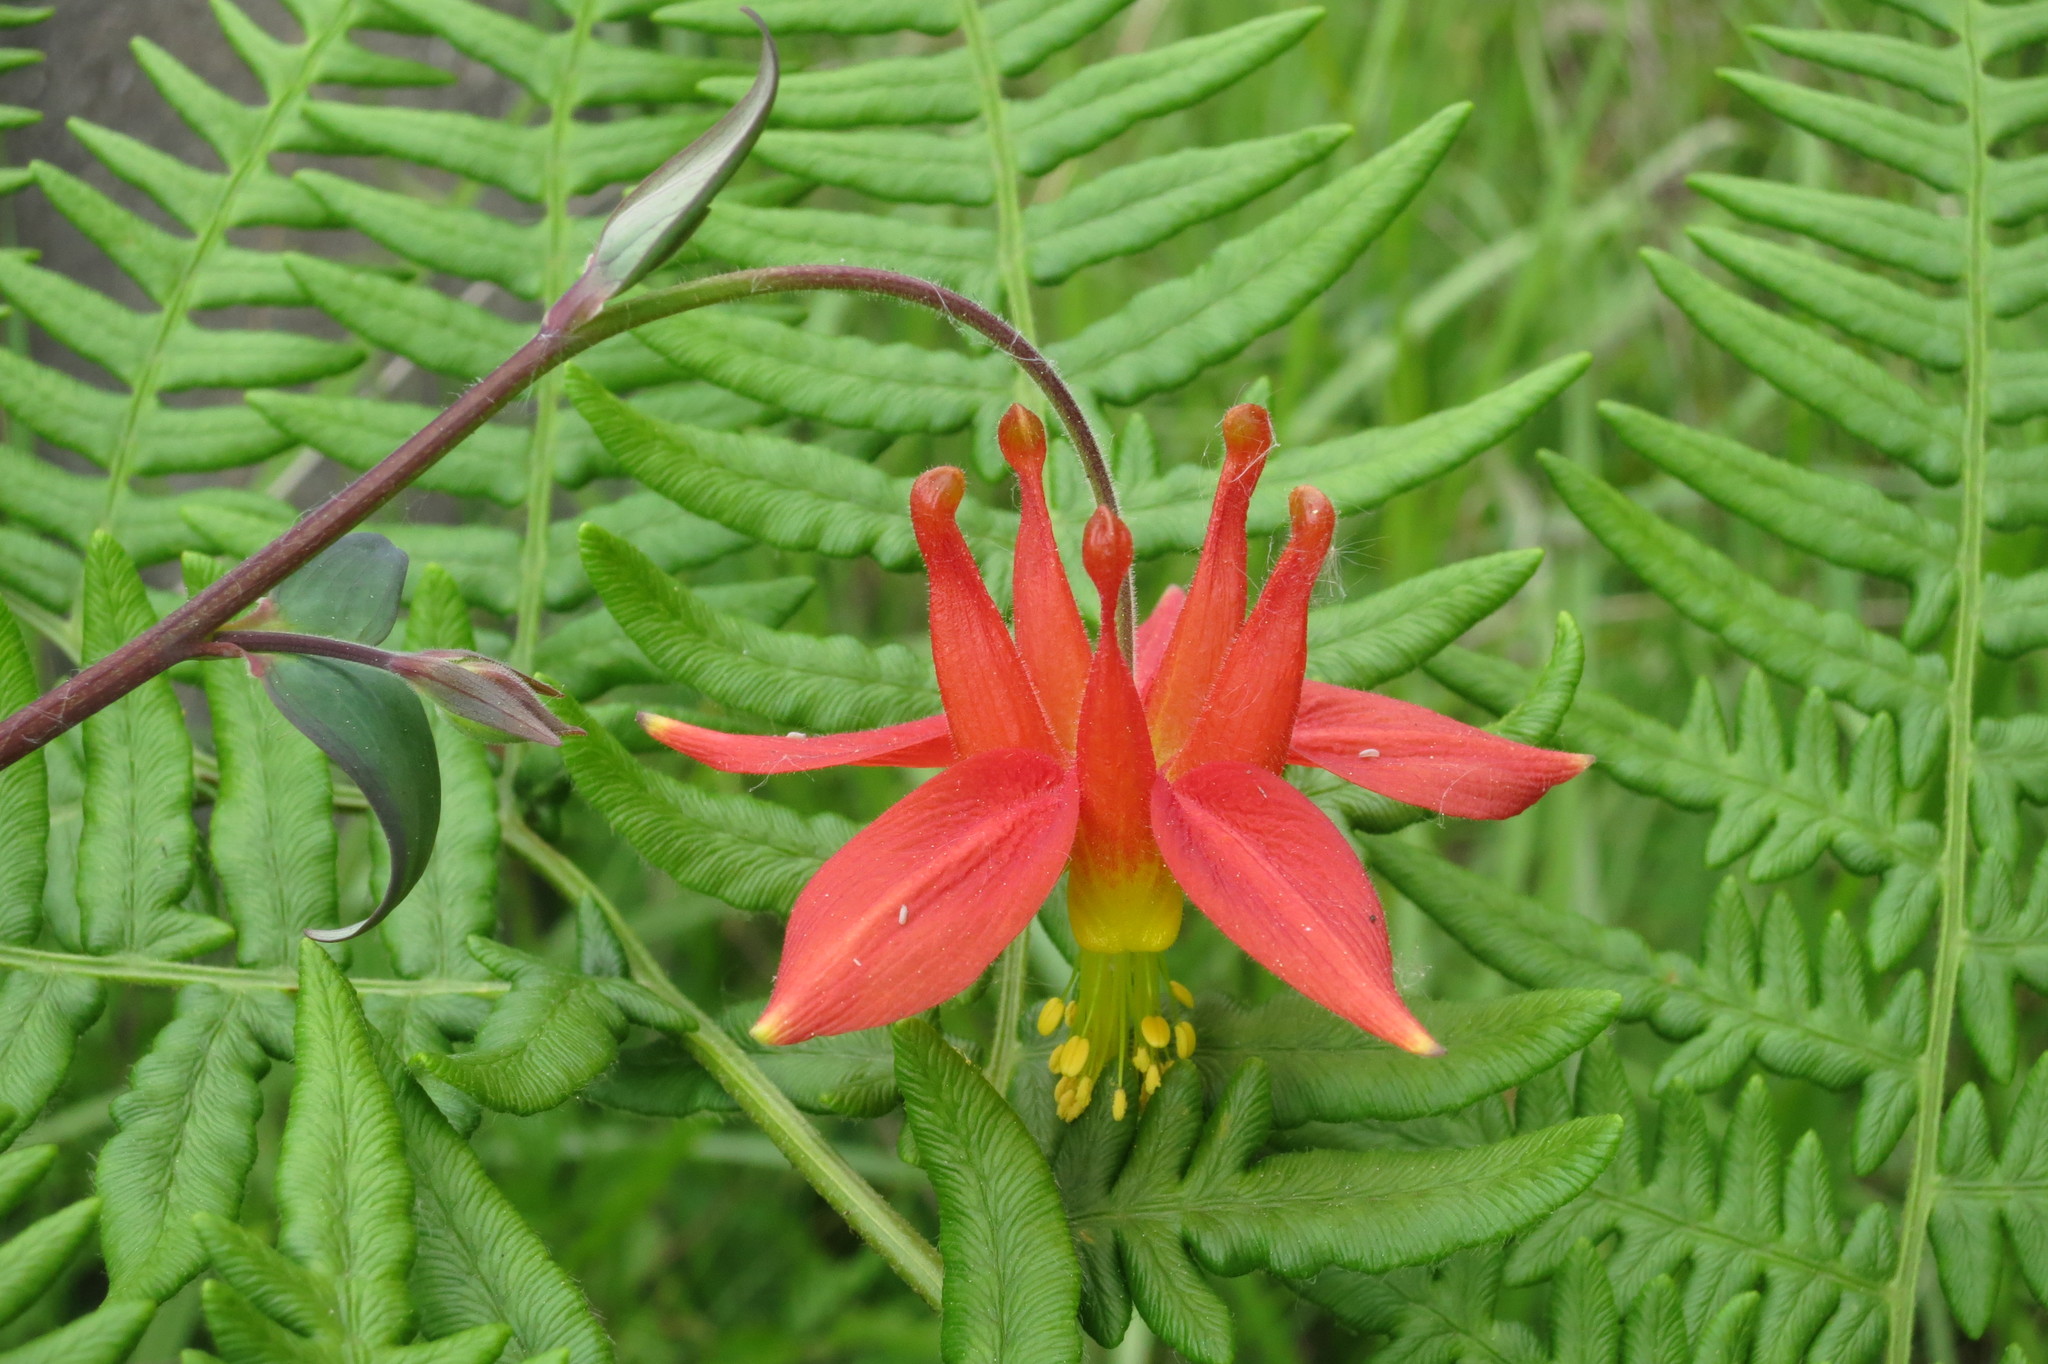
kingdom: Plantae
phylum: Tracheophyta
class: Magnoliopsida
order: Ranunculales
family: Ranunculaceae
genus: Aquilegia
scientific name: Aquilegia formosa
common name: Sitka columbine
